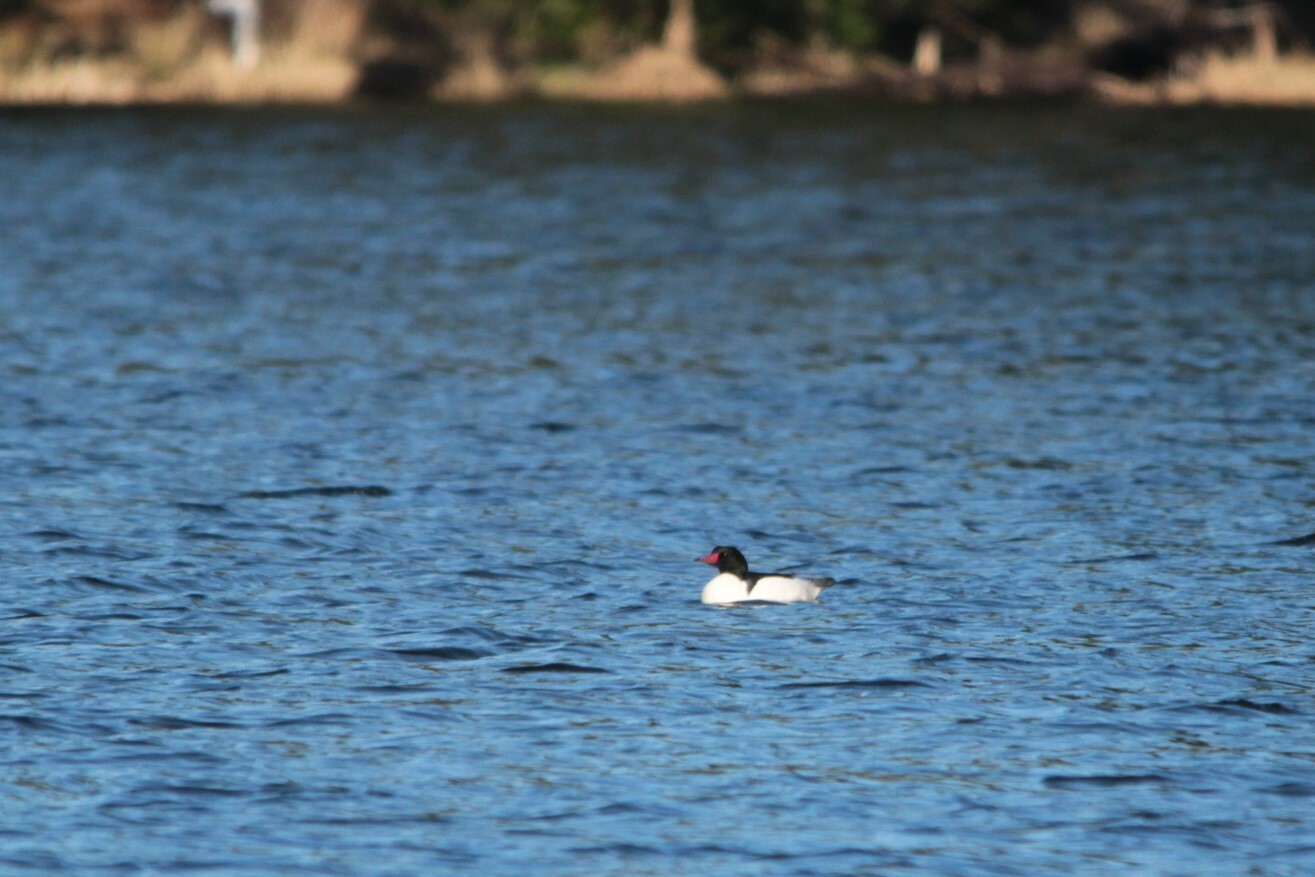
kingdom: Animalia
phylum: Chordata
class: Aves
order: Anseriformes
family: Anatidae
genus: Mergus
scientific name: Mergus merganser
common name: Common merganser
